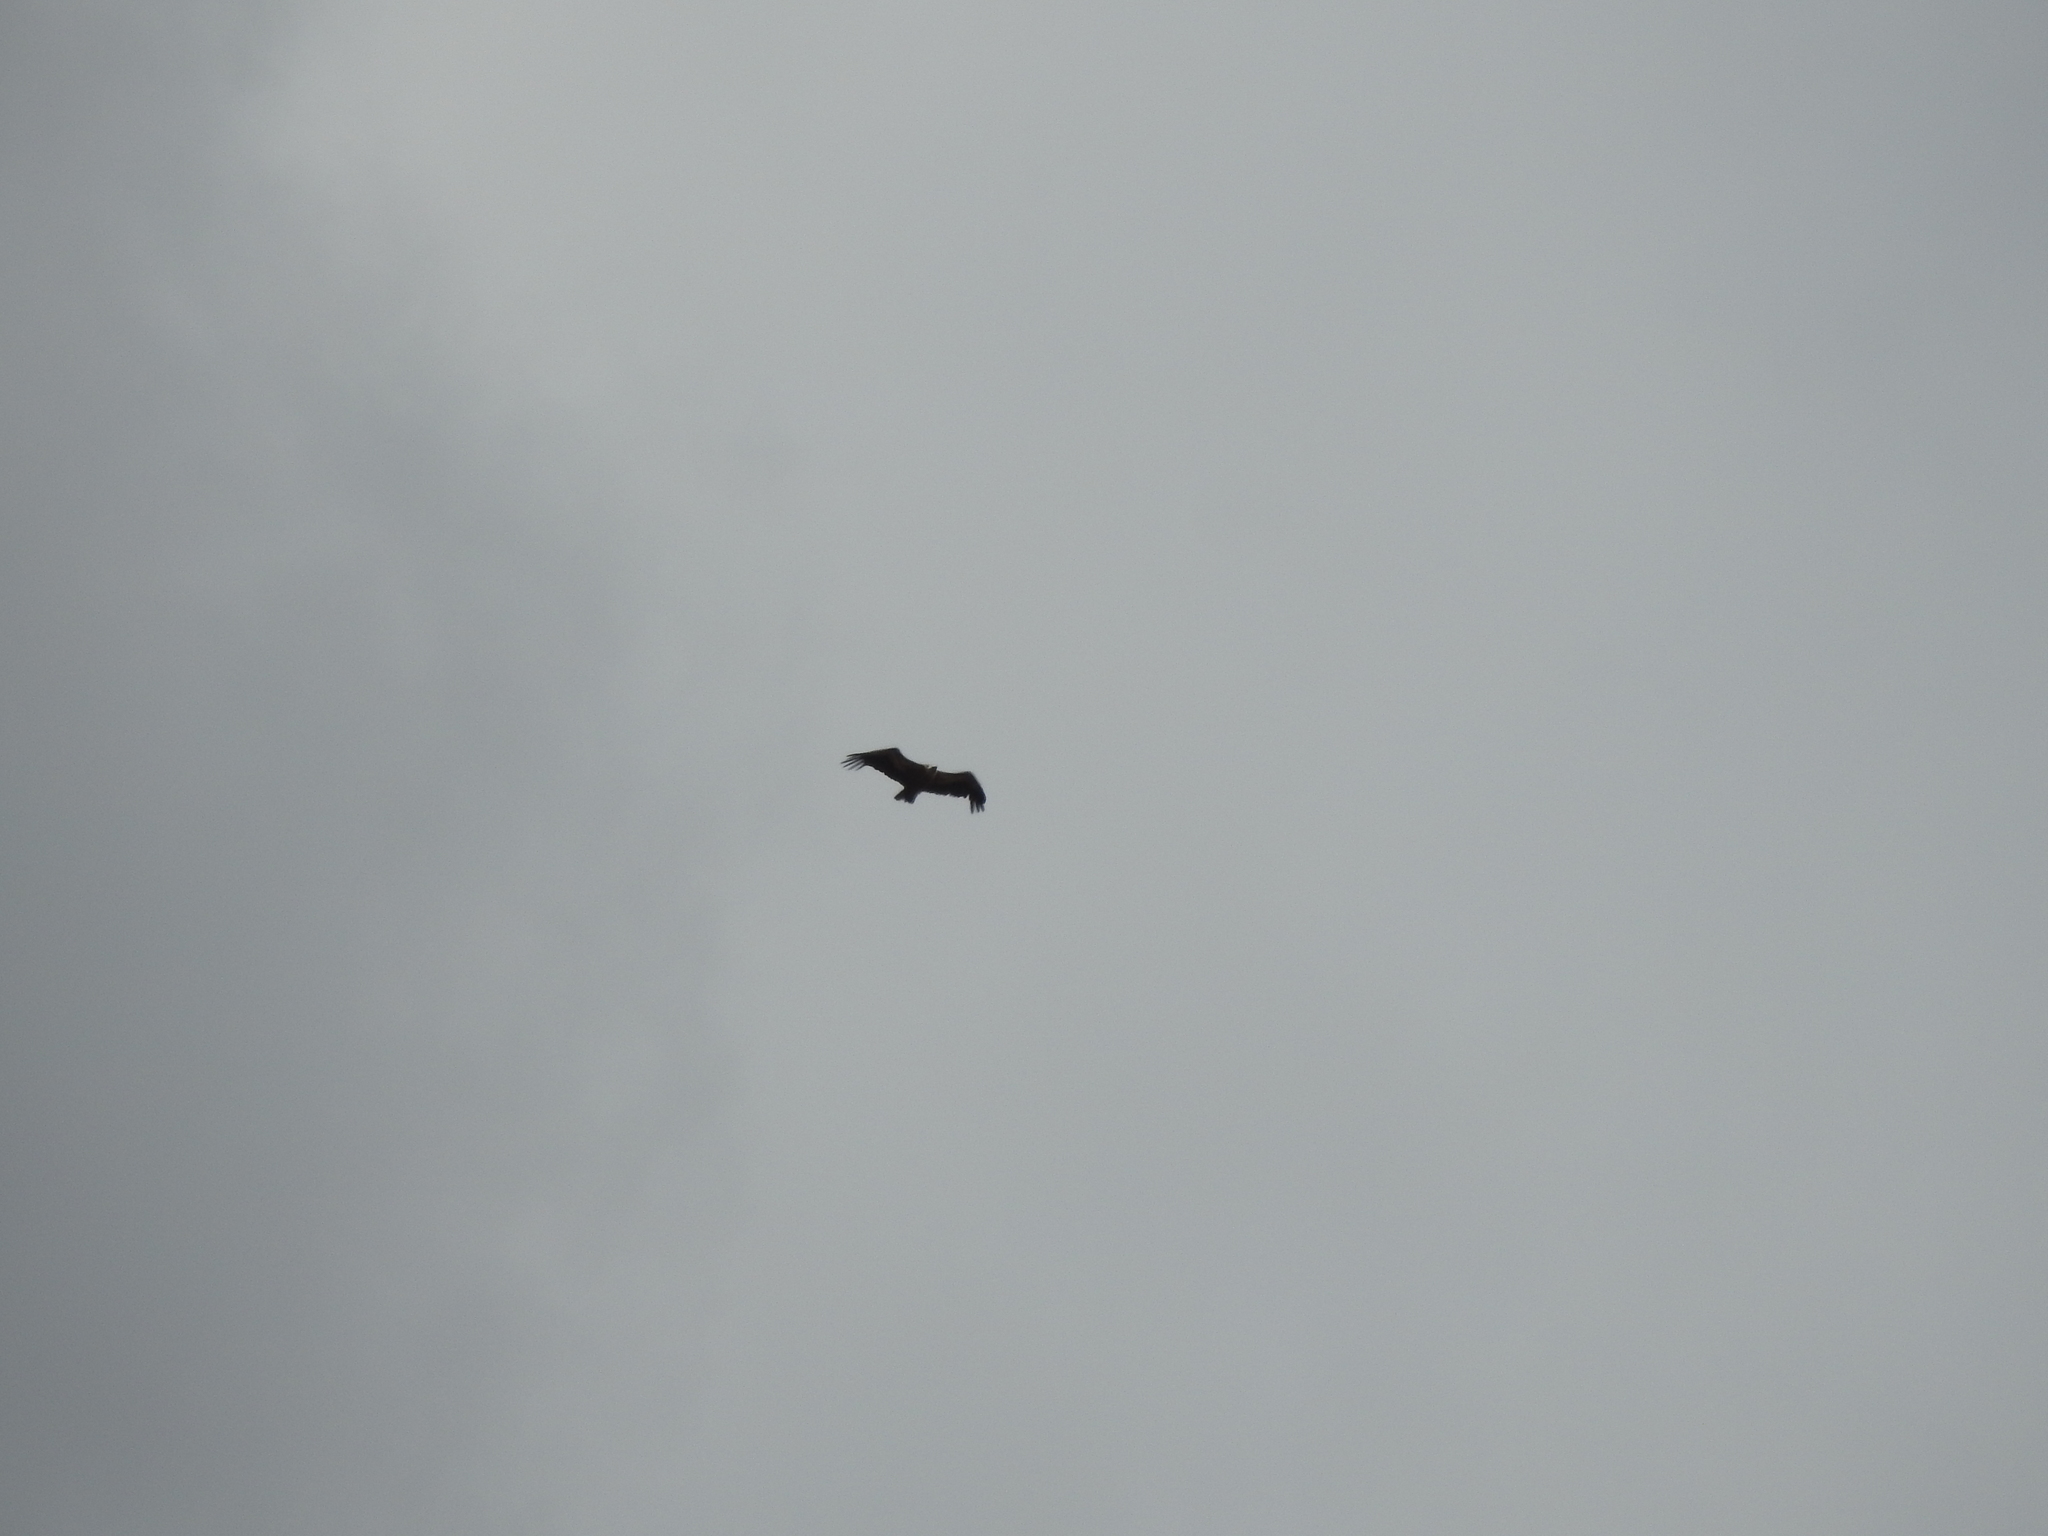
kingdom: Animalia
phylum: Chordata
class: Aves
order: Accipitriformes
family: Accipitridae
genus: Gyps
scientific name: Gyps fulvus
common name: Griffon vulture
